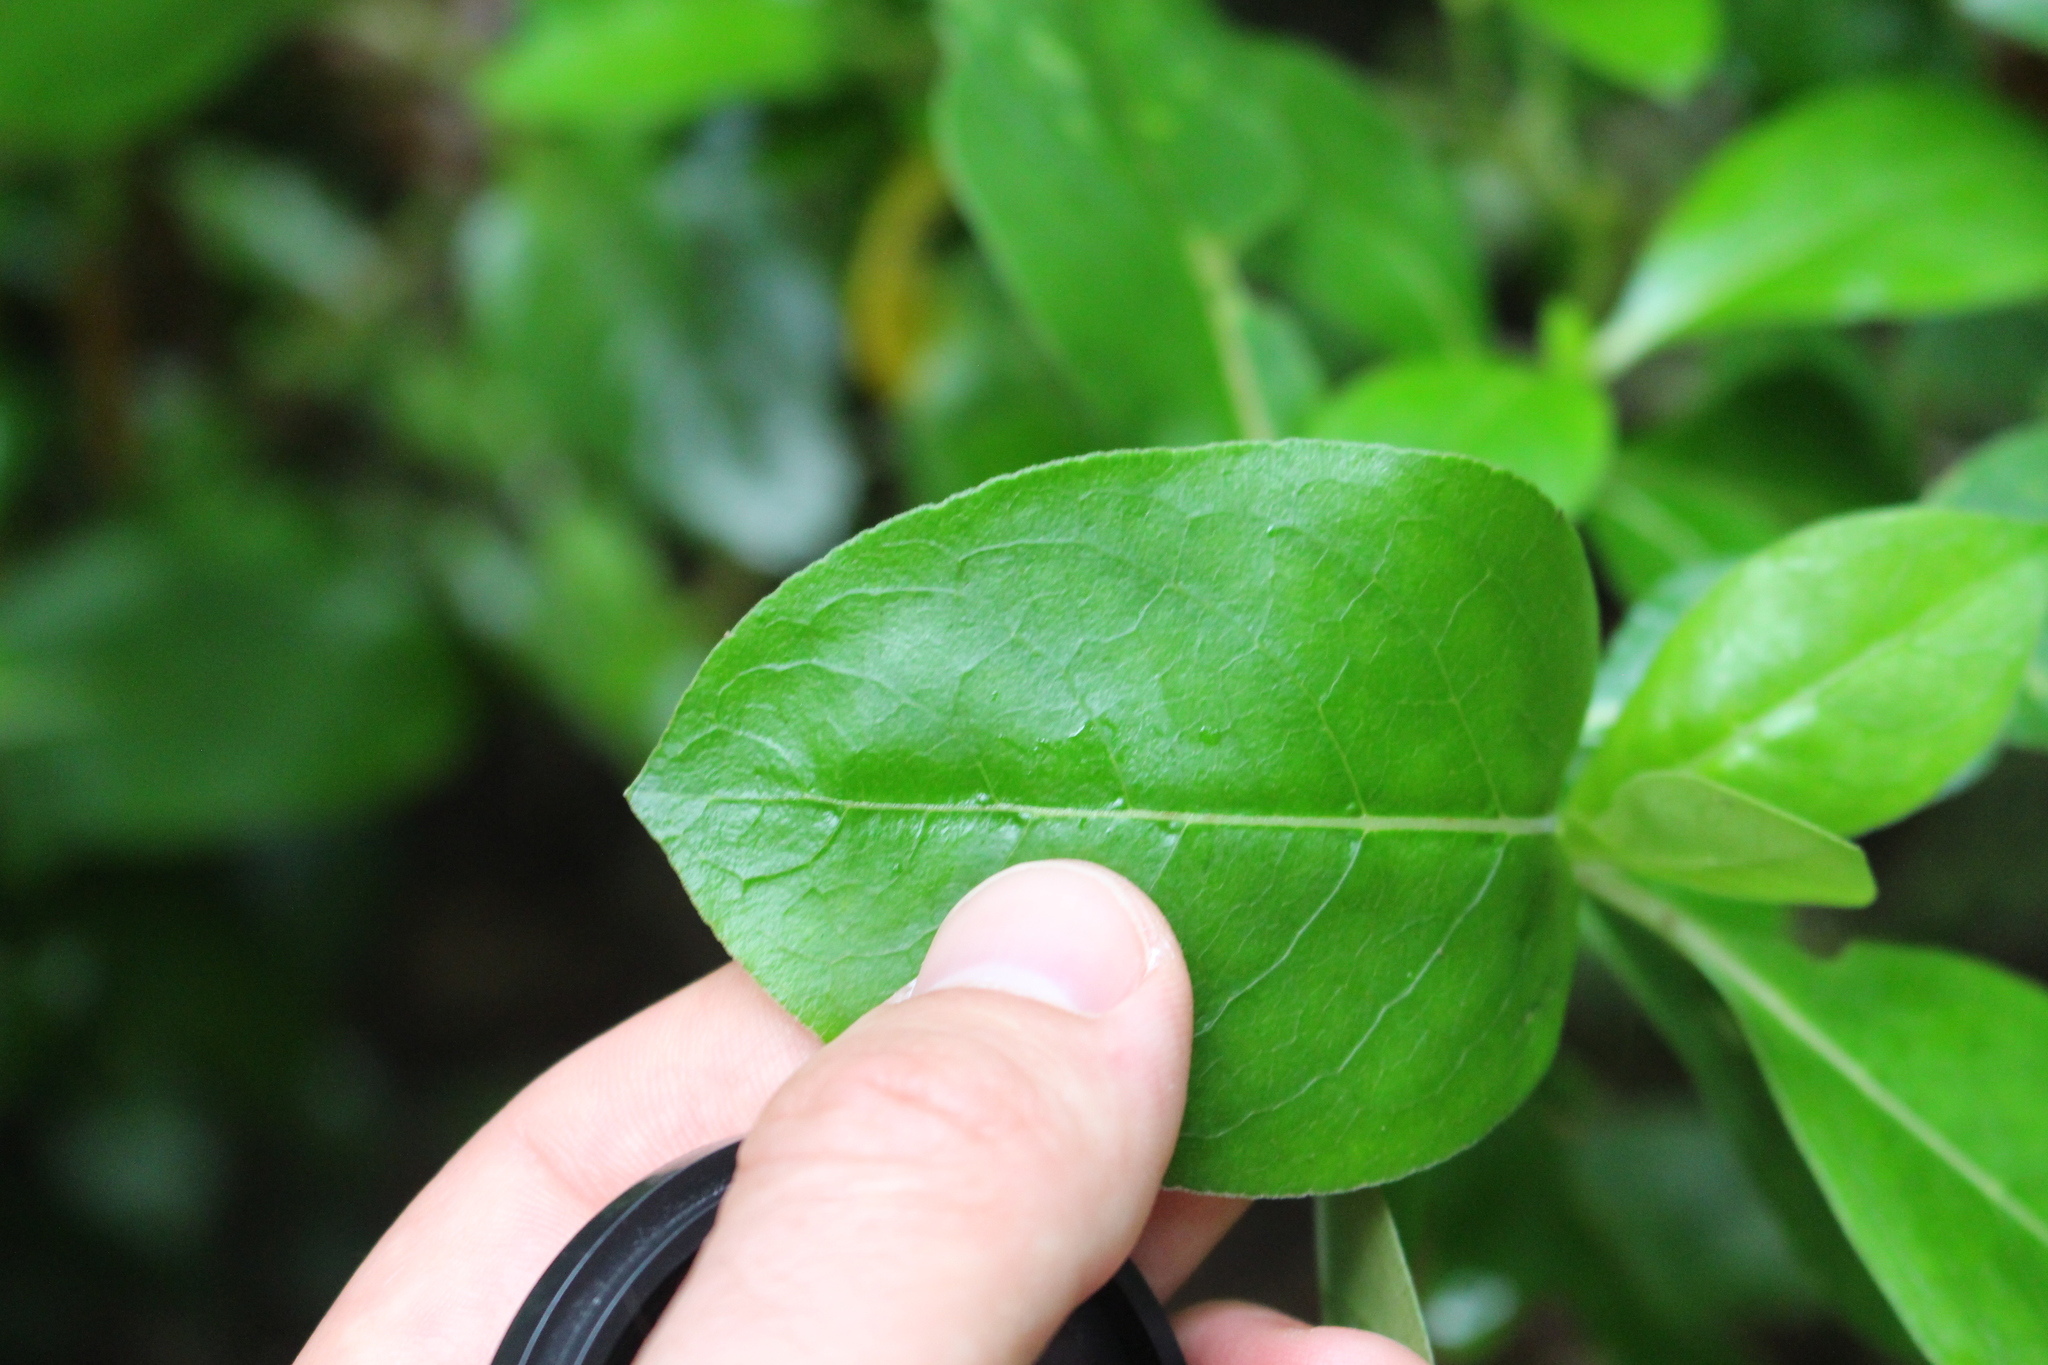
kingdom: Plantae
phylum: Tracheophyta
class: Magnoliopsida
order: Gentianales
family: Rubiaceae
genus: Coprosma
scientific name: Coprosma robusta
